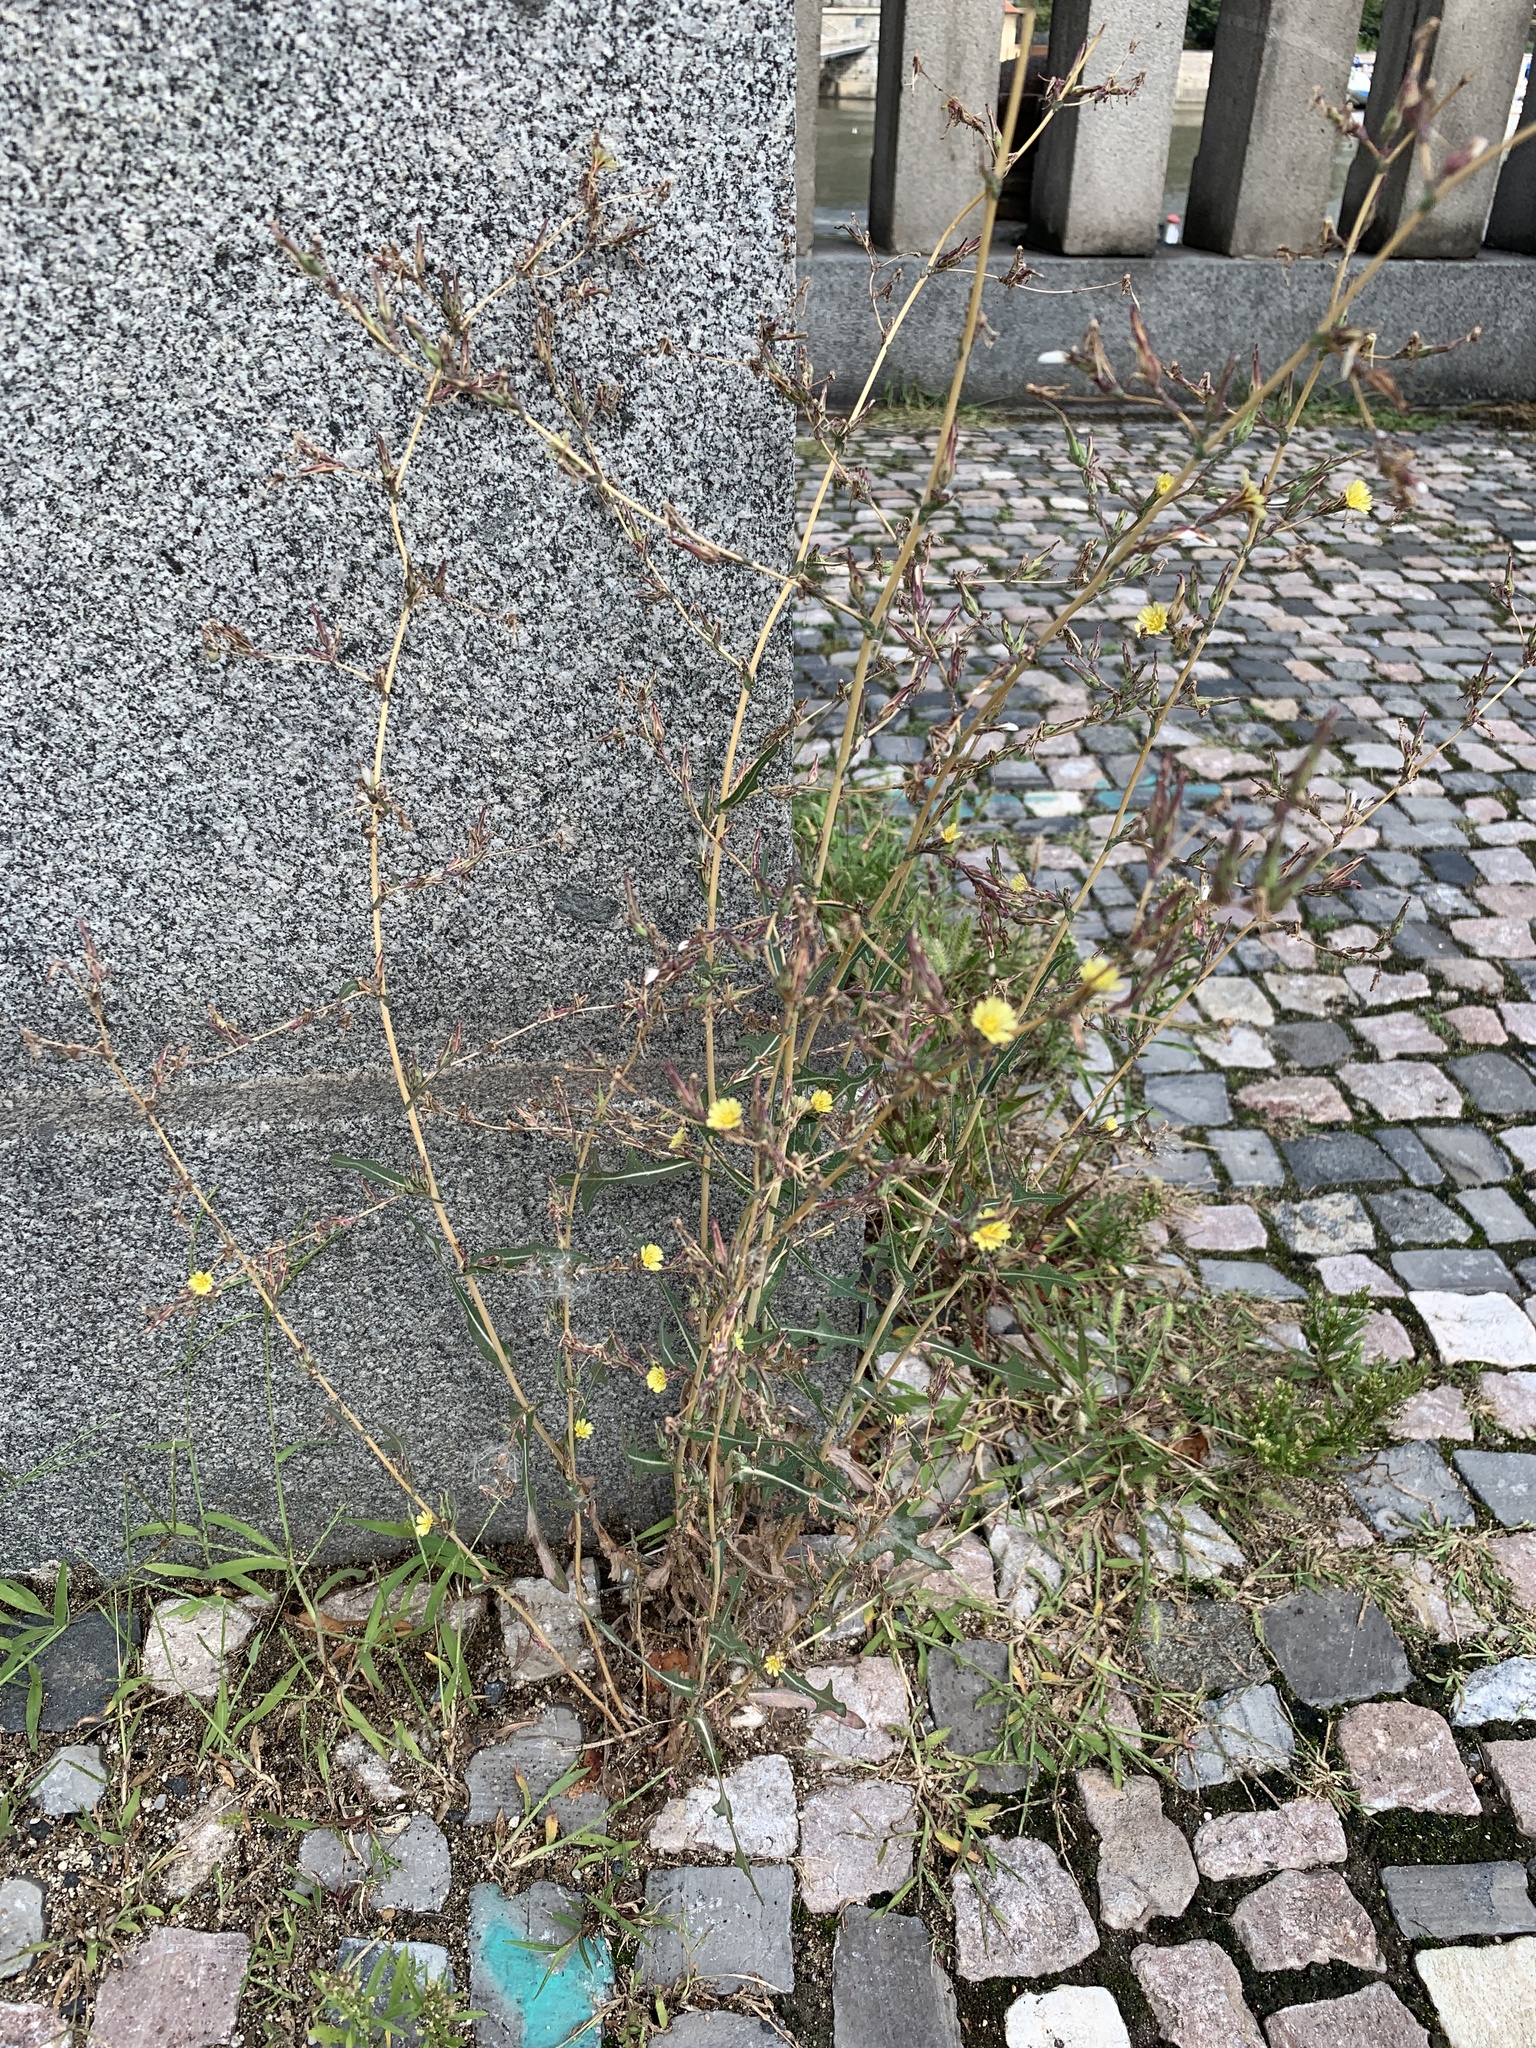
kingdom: Plantae
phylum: Tracheophyta
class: Magnoliopsida
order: Asterales
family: Asteraceae
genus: Lactuca
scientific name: Lactuca serriola
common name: Prickly lettuce
